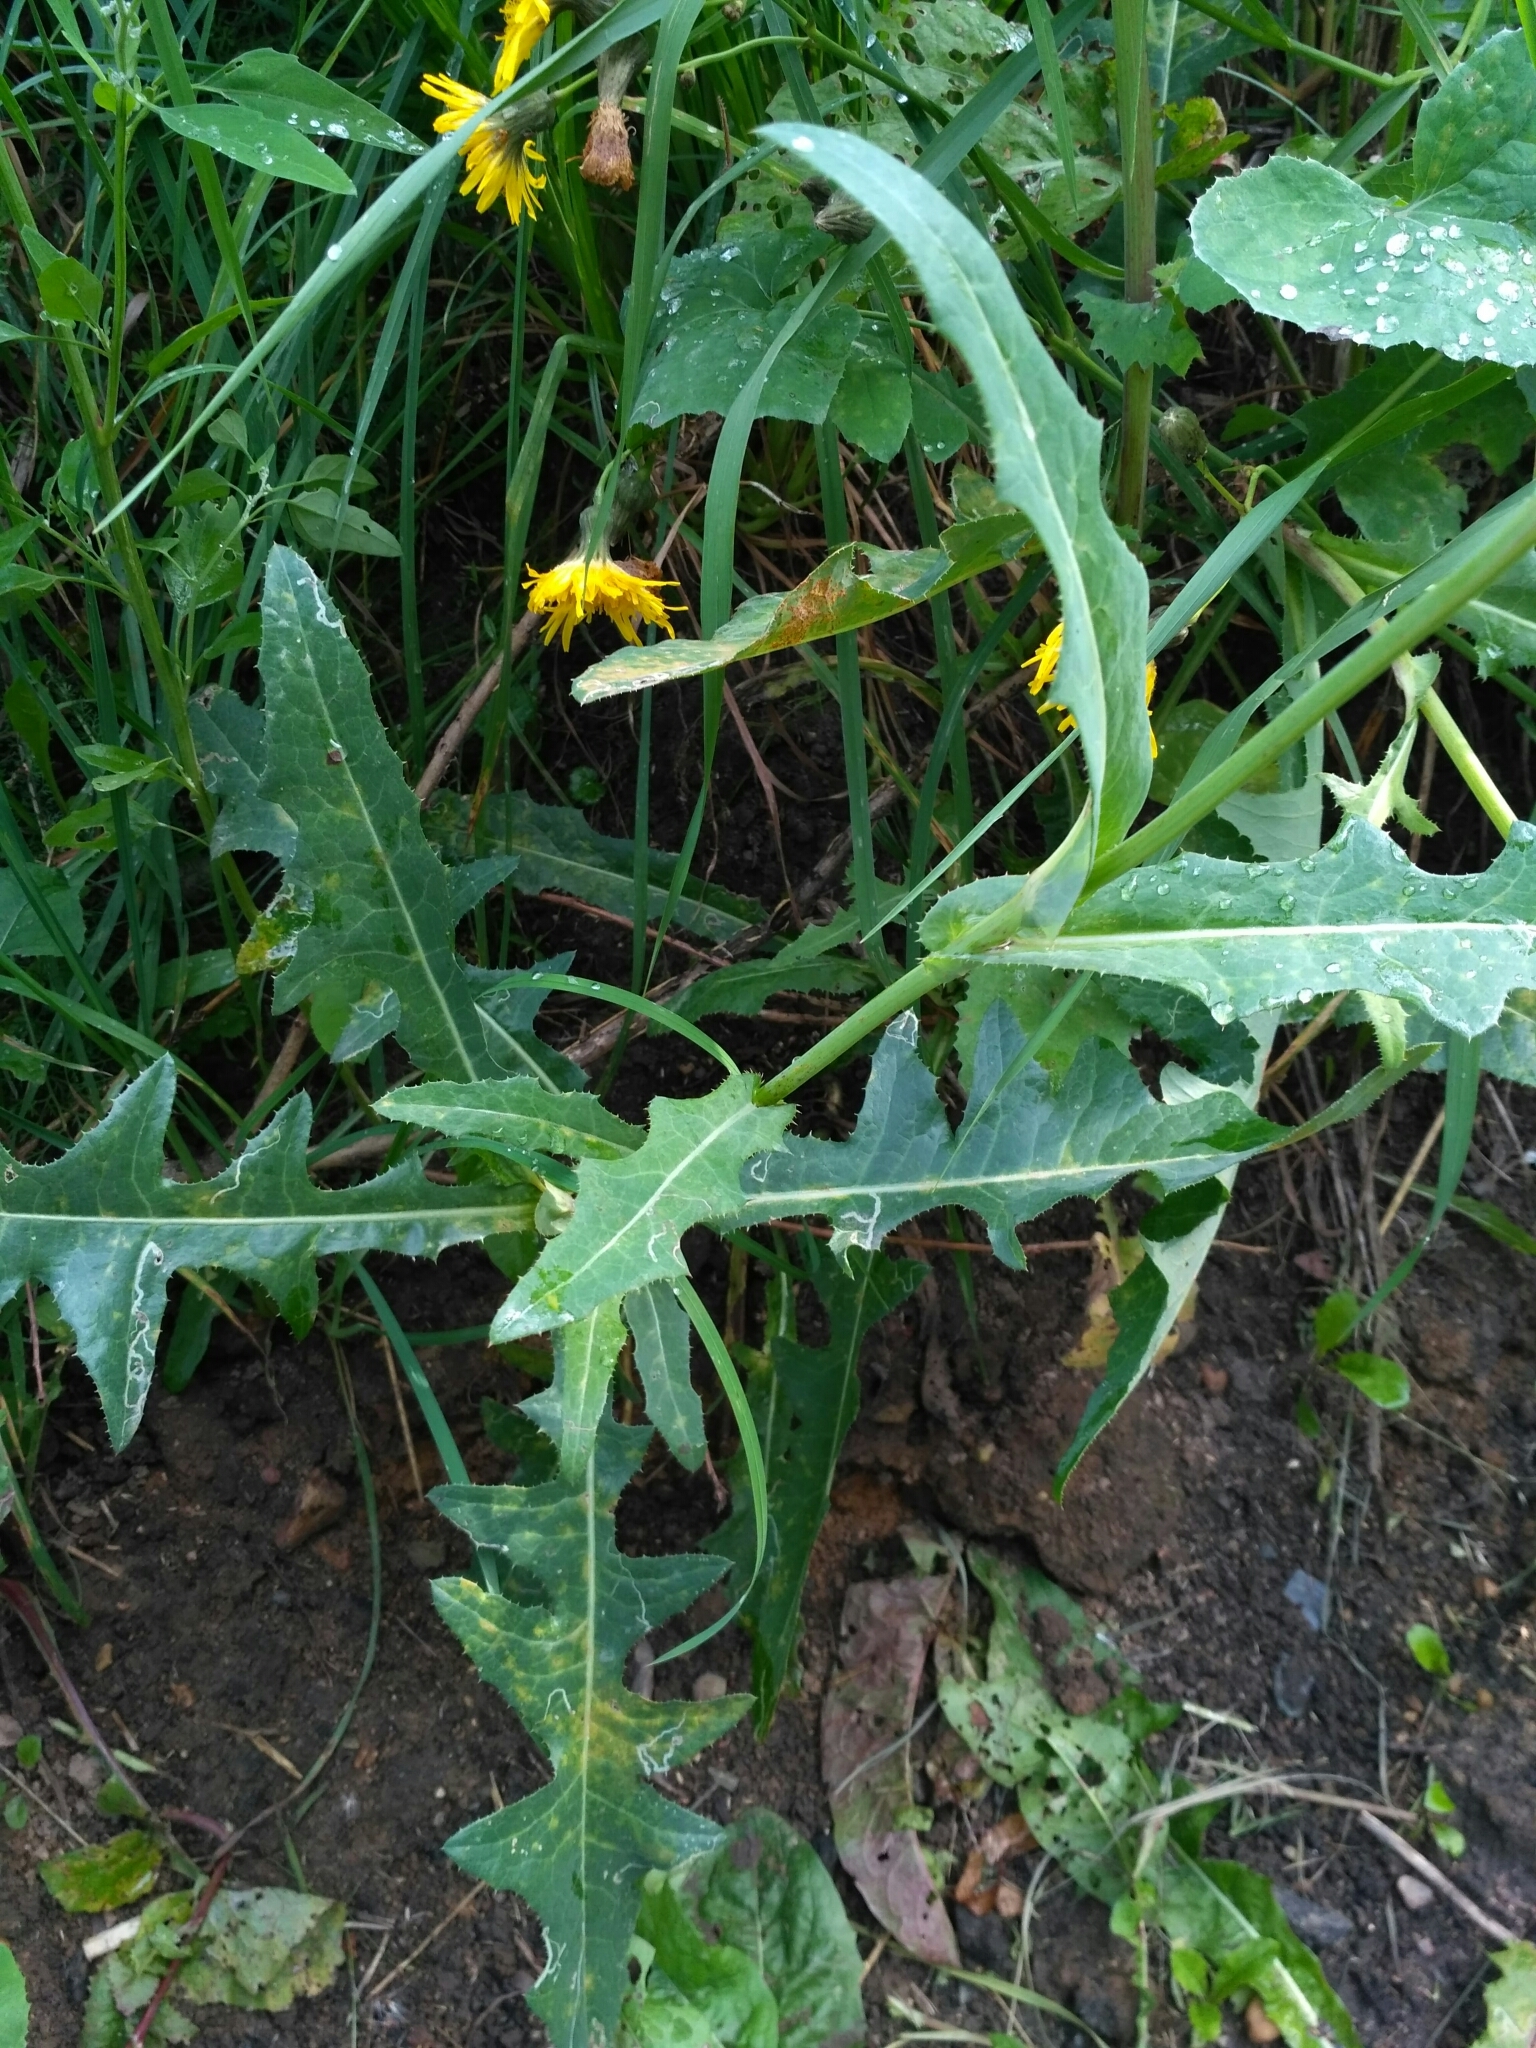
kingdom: Plantae
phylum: Tracheophyta
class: Magnoliopsida
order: Asterales
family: Asteraceae
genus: Sonchus
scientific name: Sonchus arvensis
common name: Perennial sow-thistle
